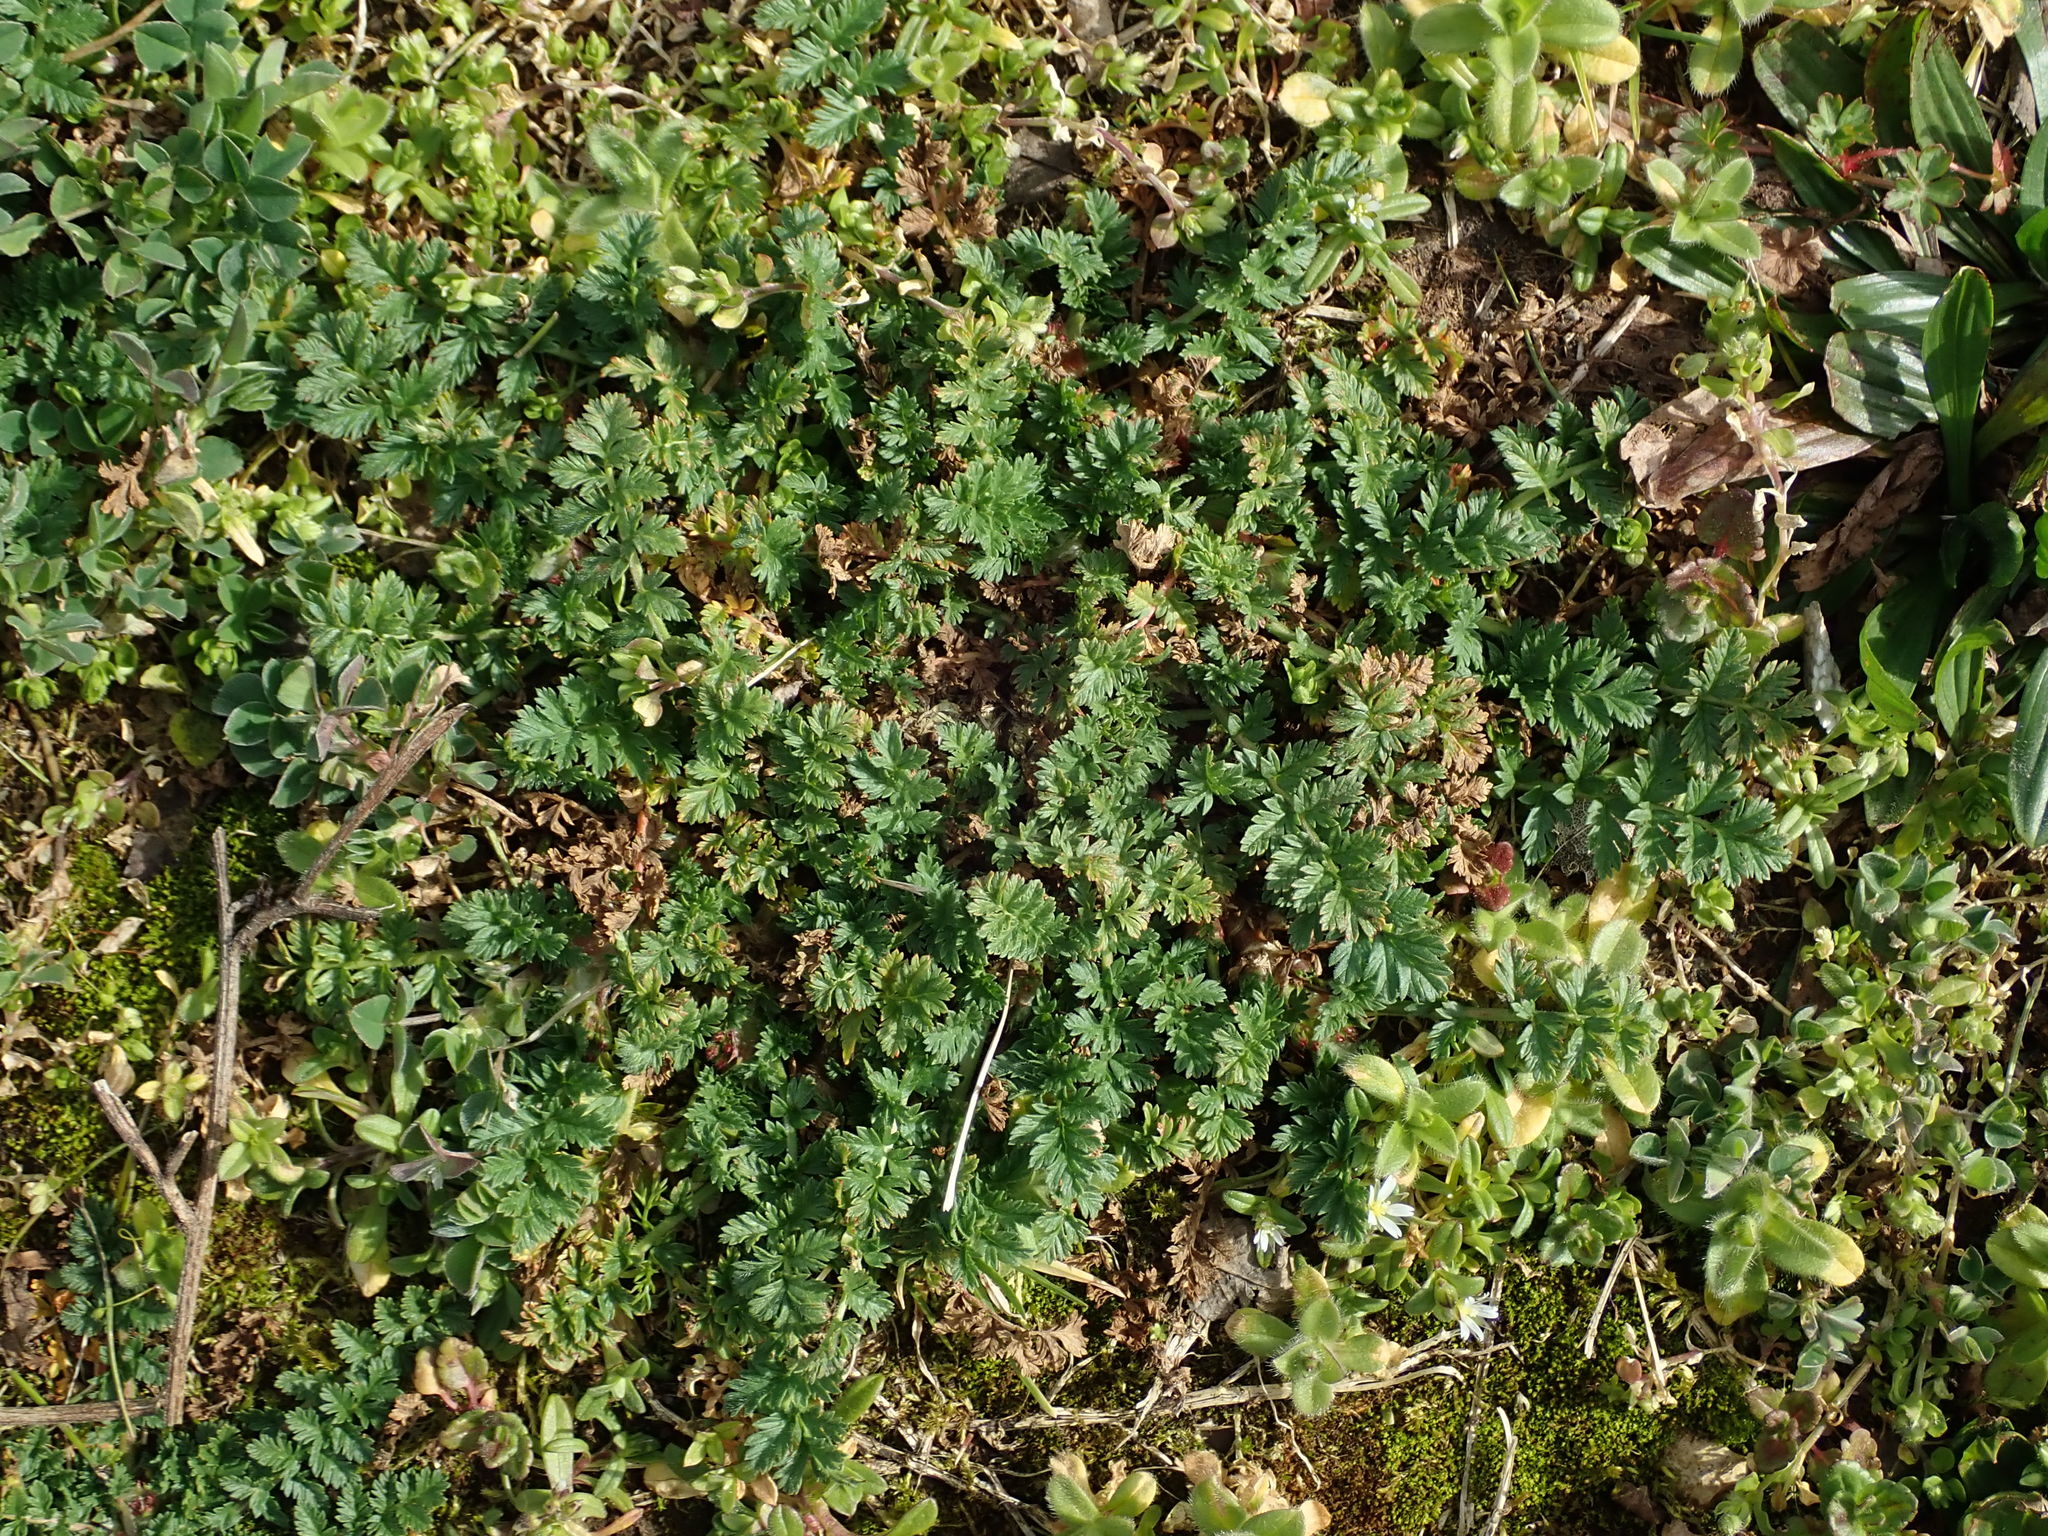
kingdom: Plantae
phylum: Tracheophyta
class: Magnoliopsida
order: Geraniales
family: Geraniaceae
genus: Erodium
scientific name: Erodium cicutarium
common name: Common stork's-bill
